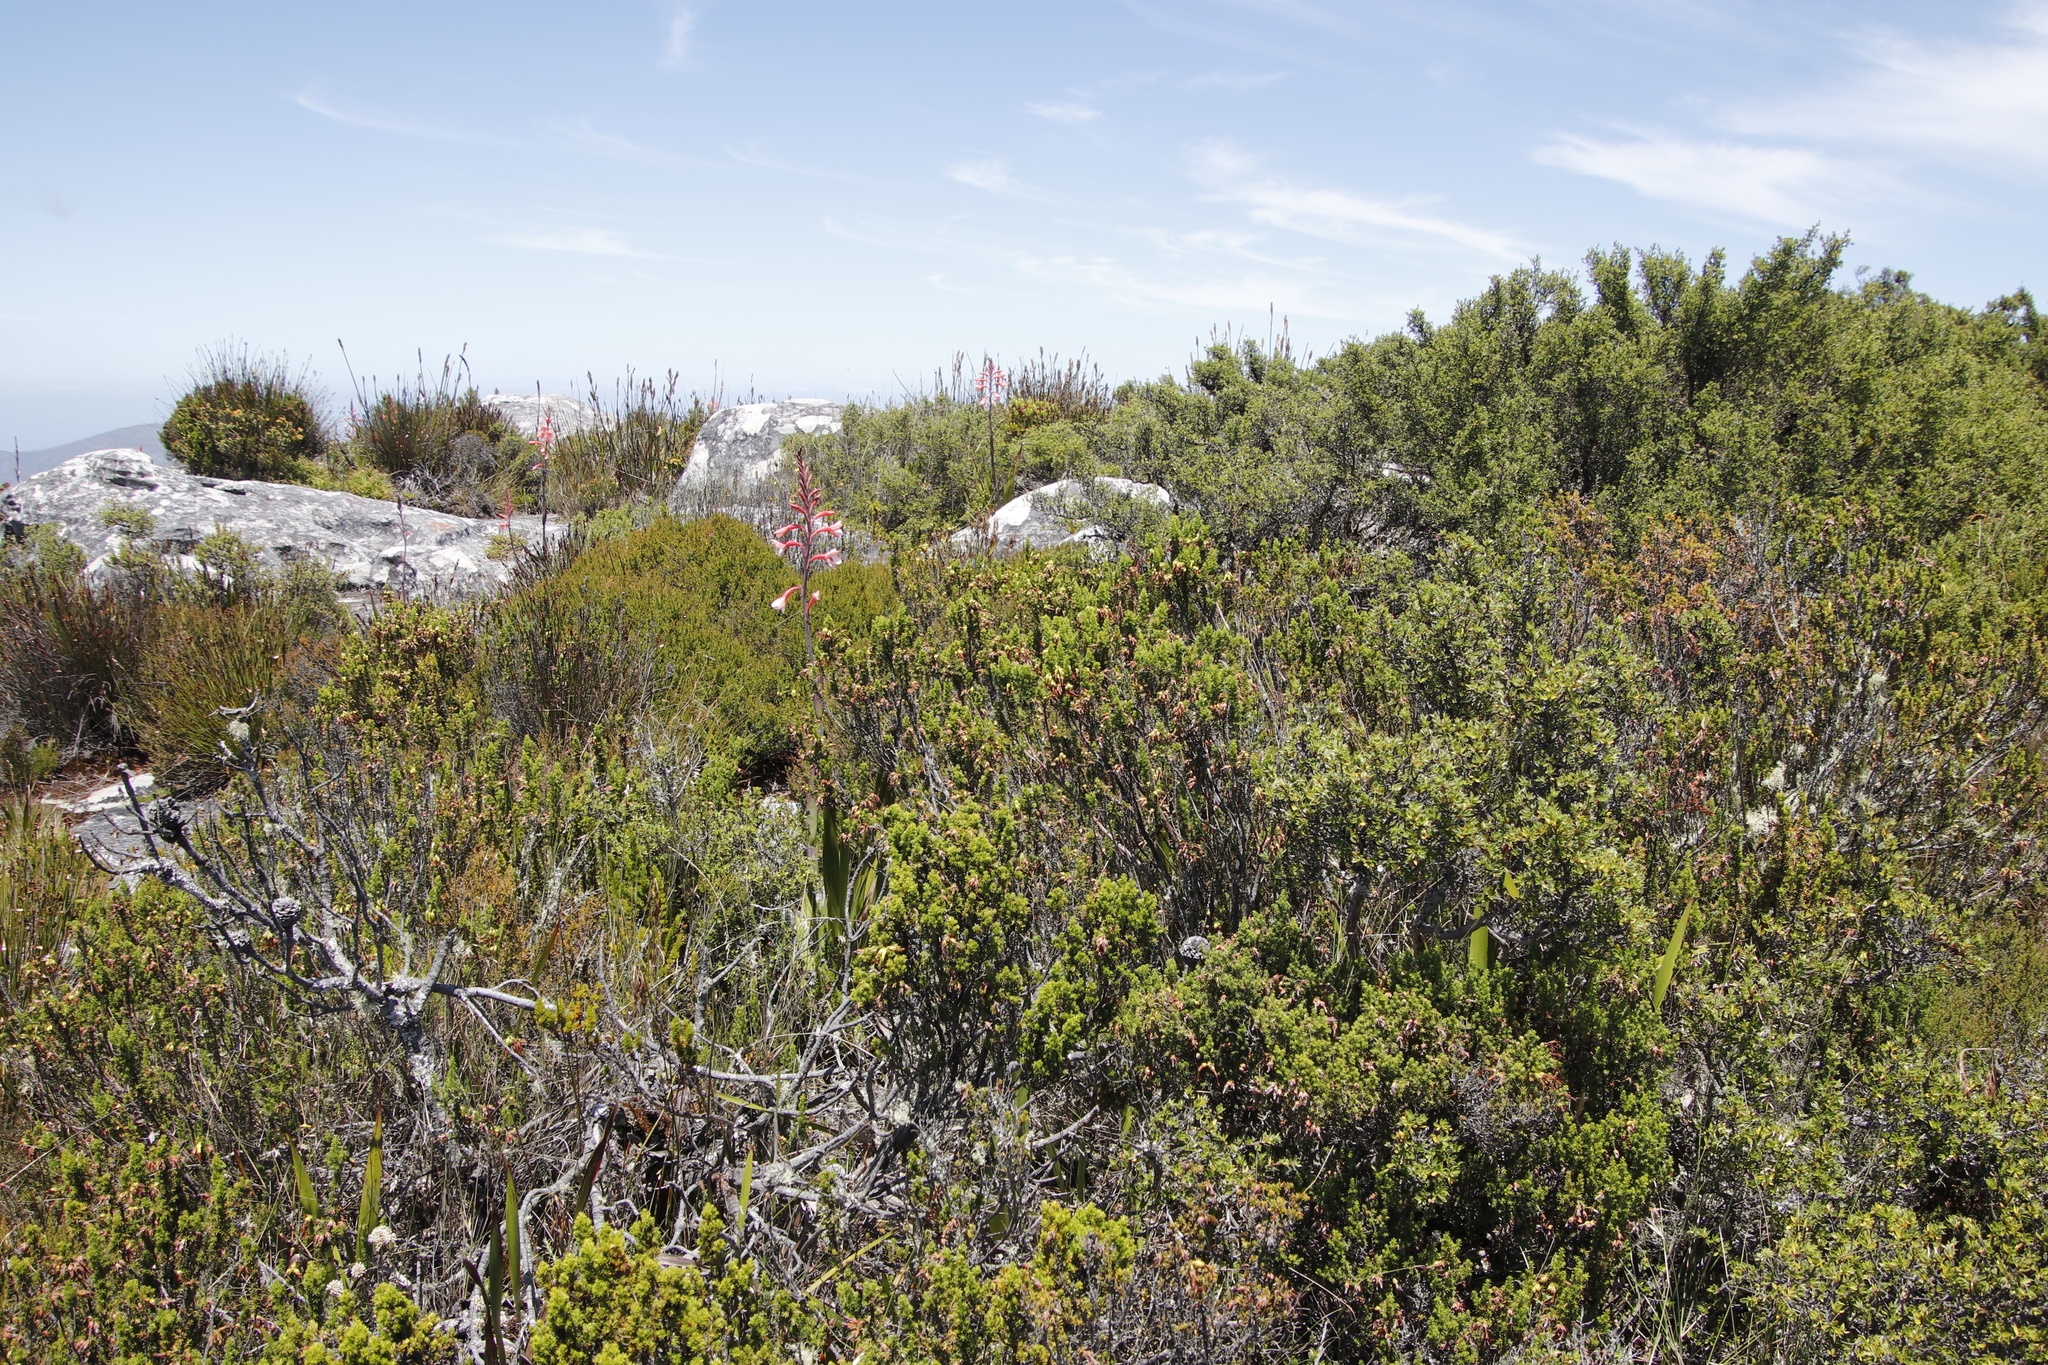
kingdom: Plantae
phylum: Tracheophyta
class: Magnoliopsida
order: Ericales
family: Ericaceae
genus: Erica
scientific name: Erica coccinea
